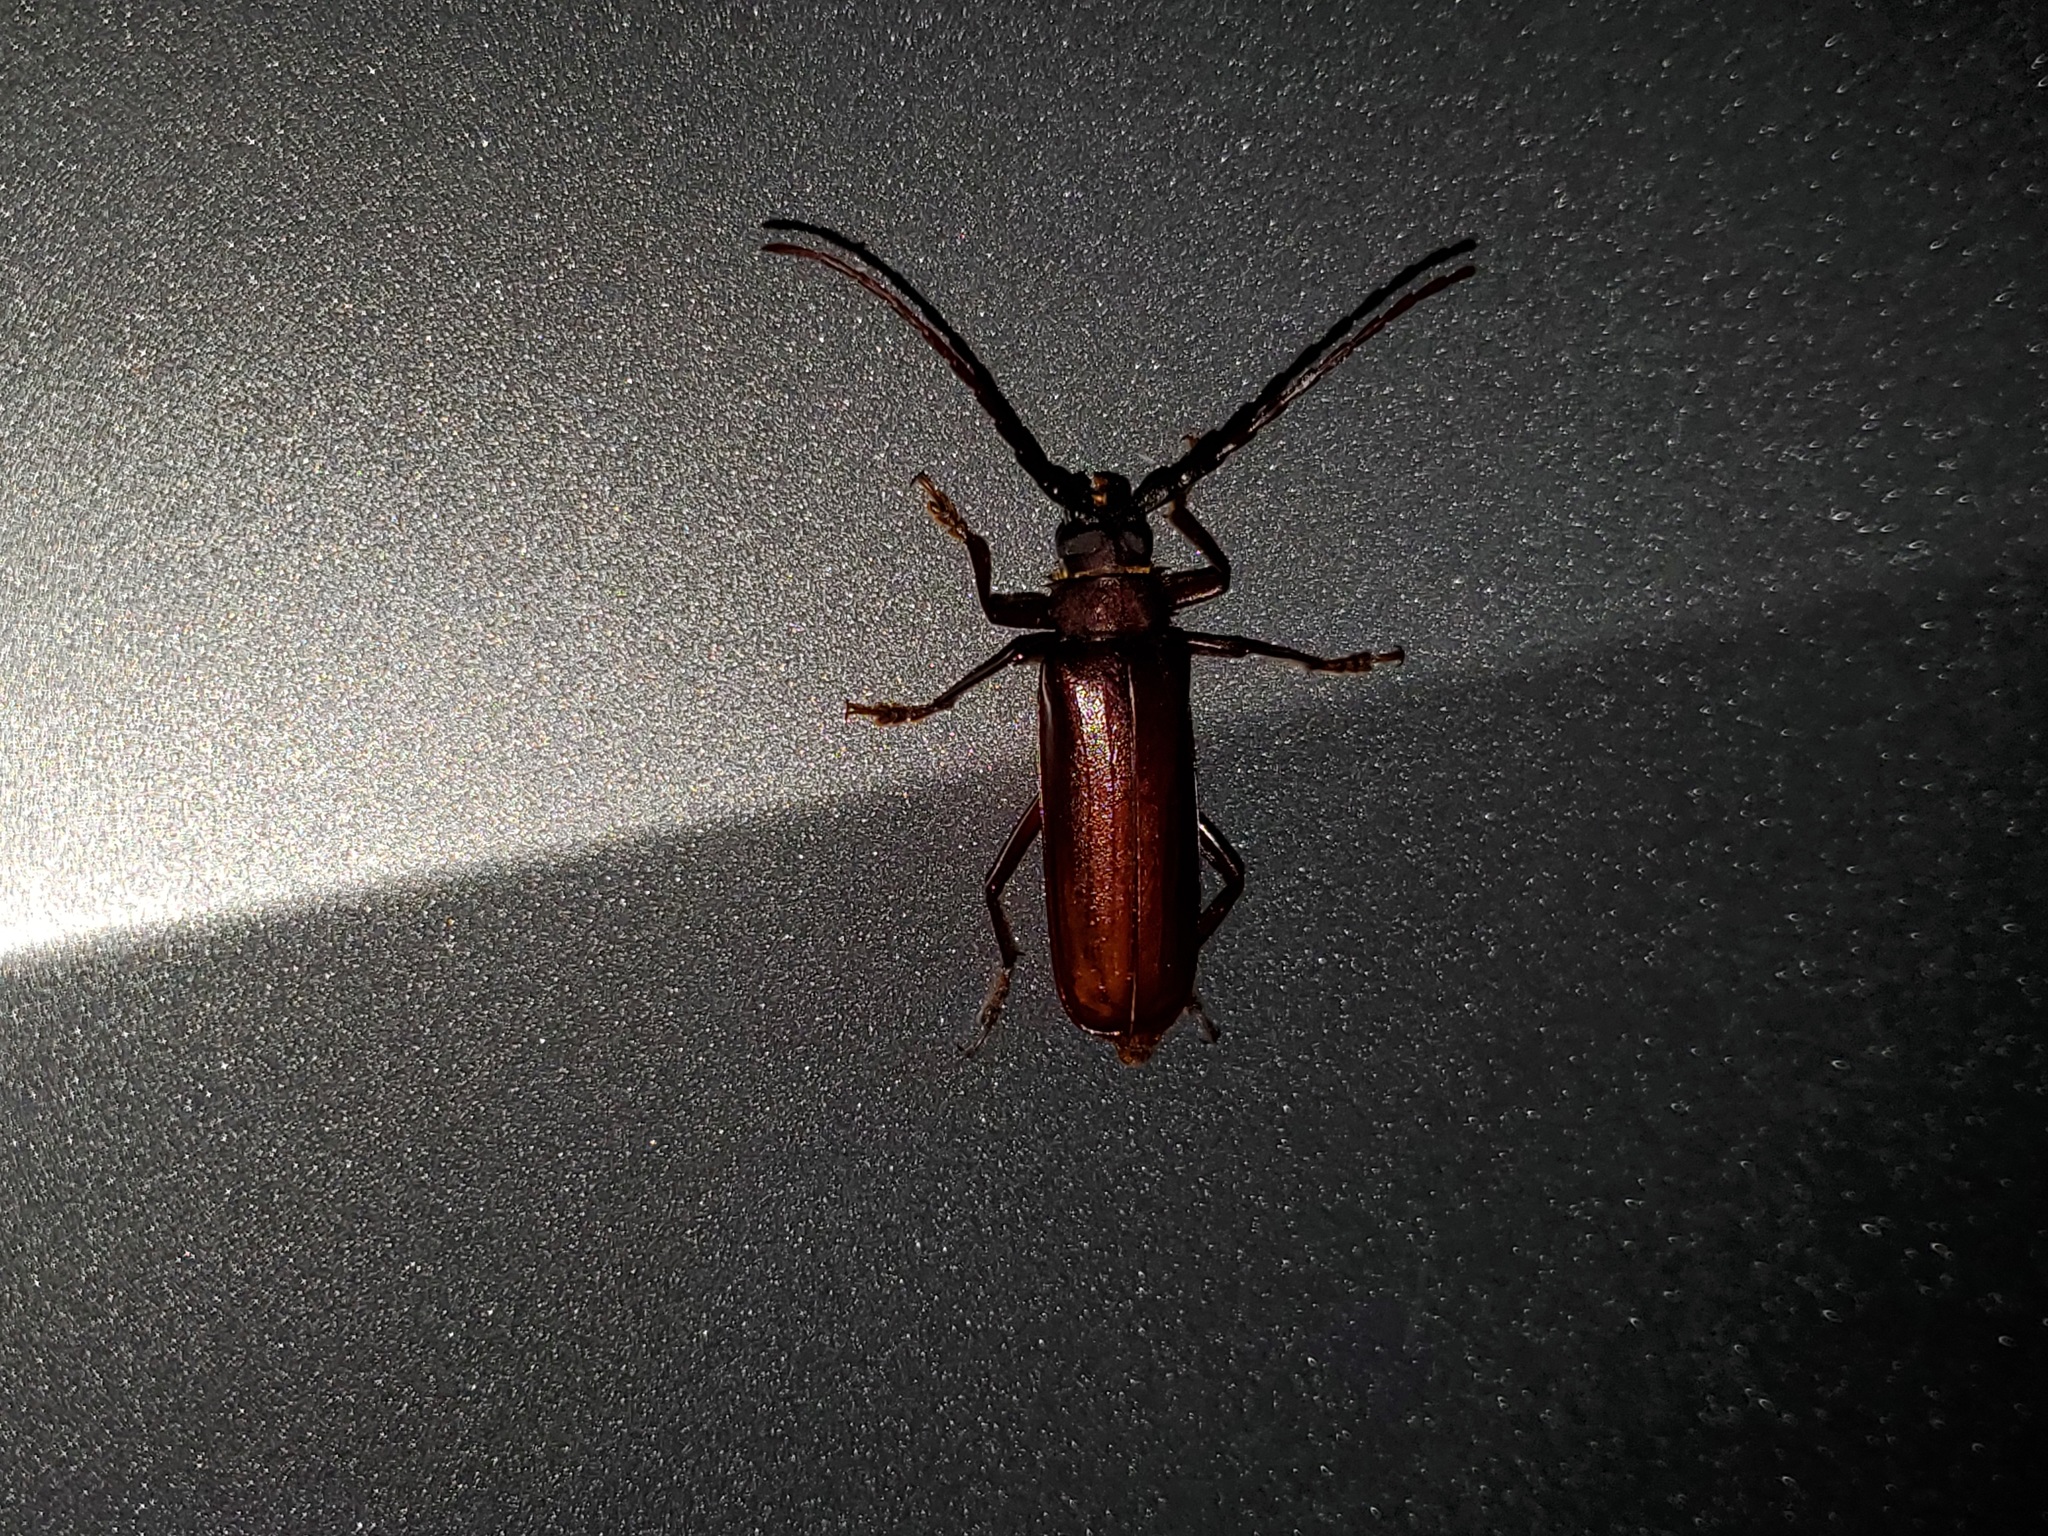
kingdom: Animalia
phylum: Arthropoda
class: Insecta
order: Coleoptera
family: Cerambycidae
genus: Orthosoma
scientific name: Orthosoma brunneum
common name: Brown prionid beetle
